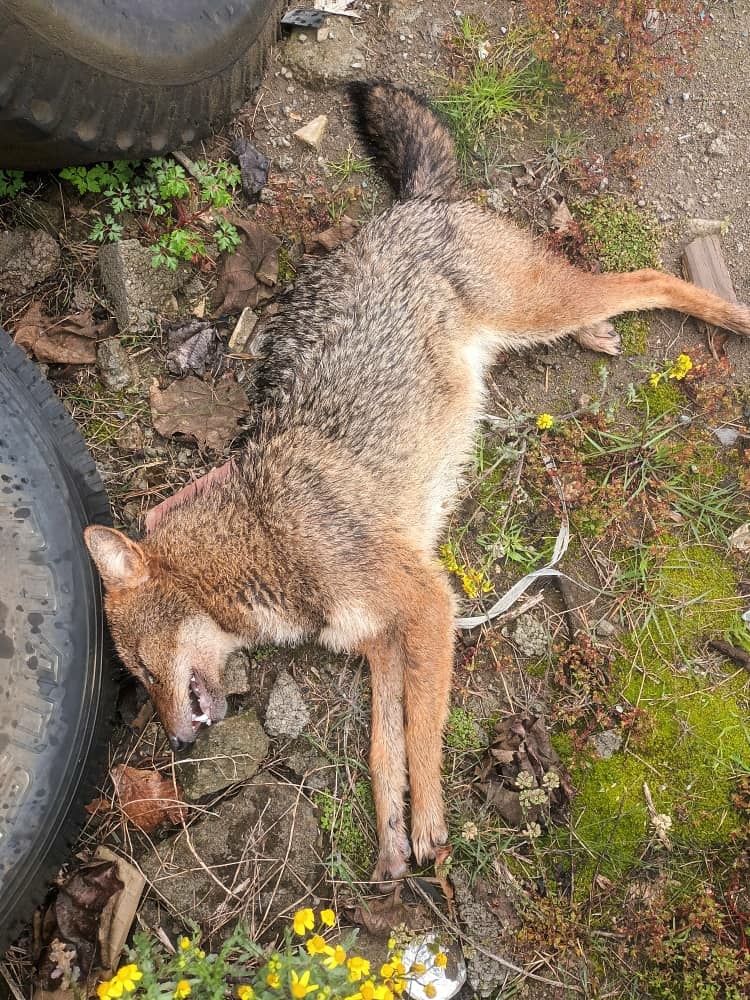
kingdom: Animalia
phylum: Chordata
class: Mammalia
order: Carnivora
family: Canidae
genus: Canis
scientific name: Canis aureus
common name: Golden jackal
